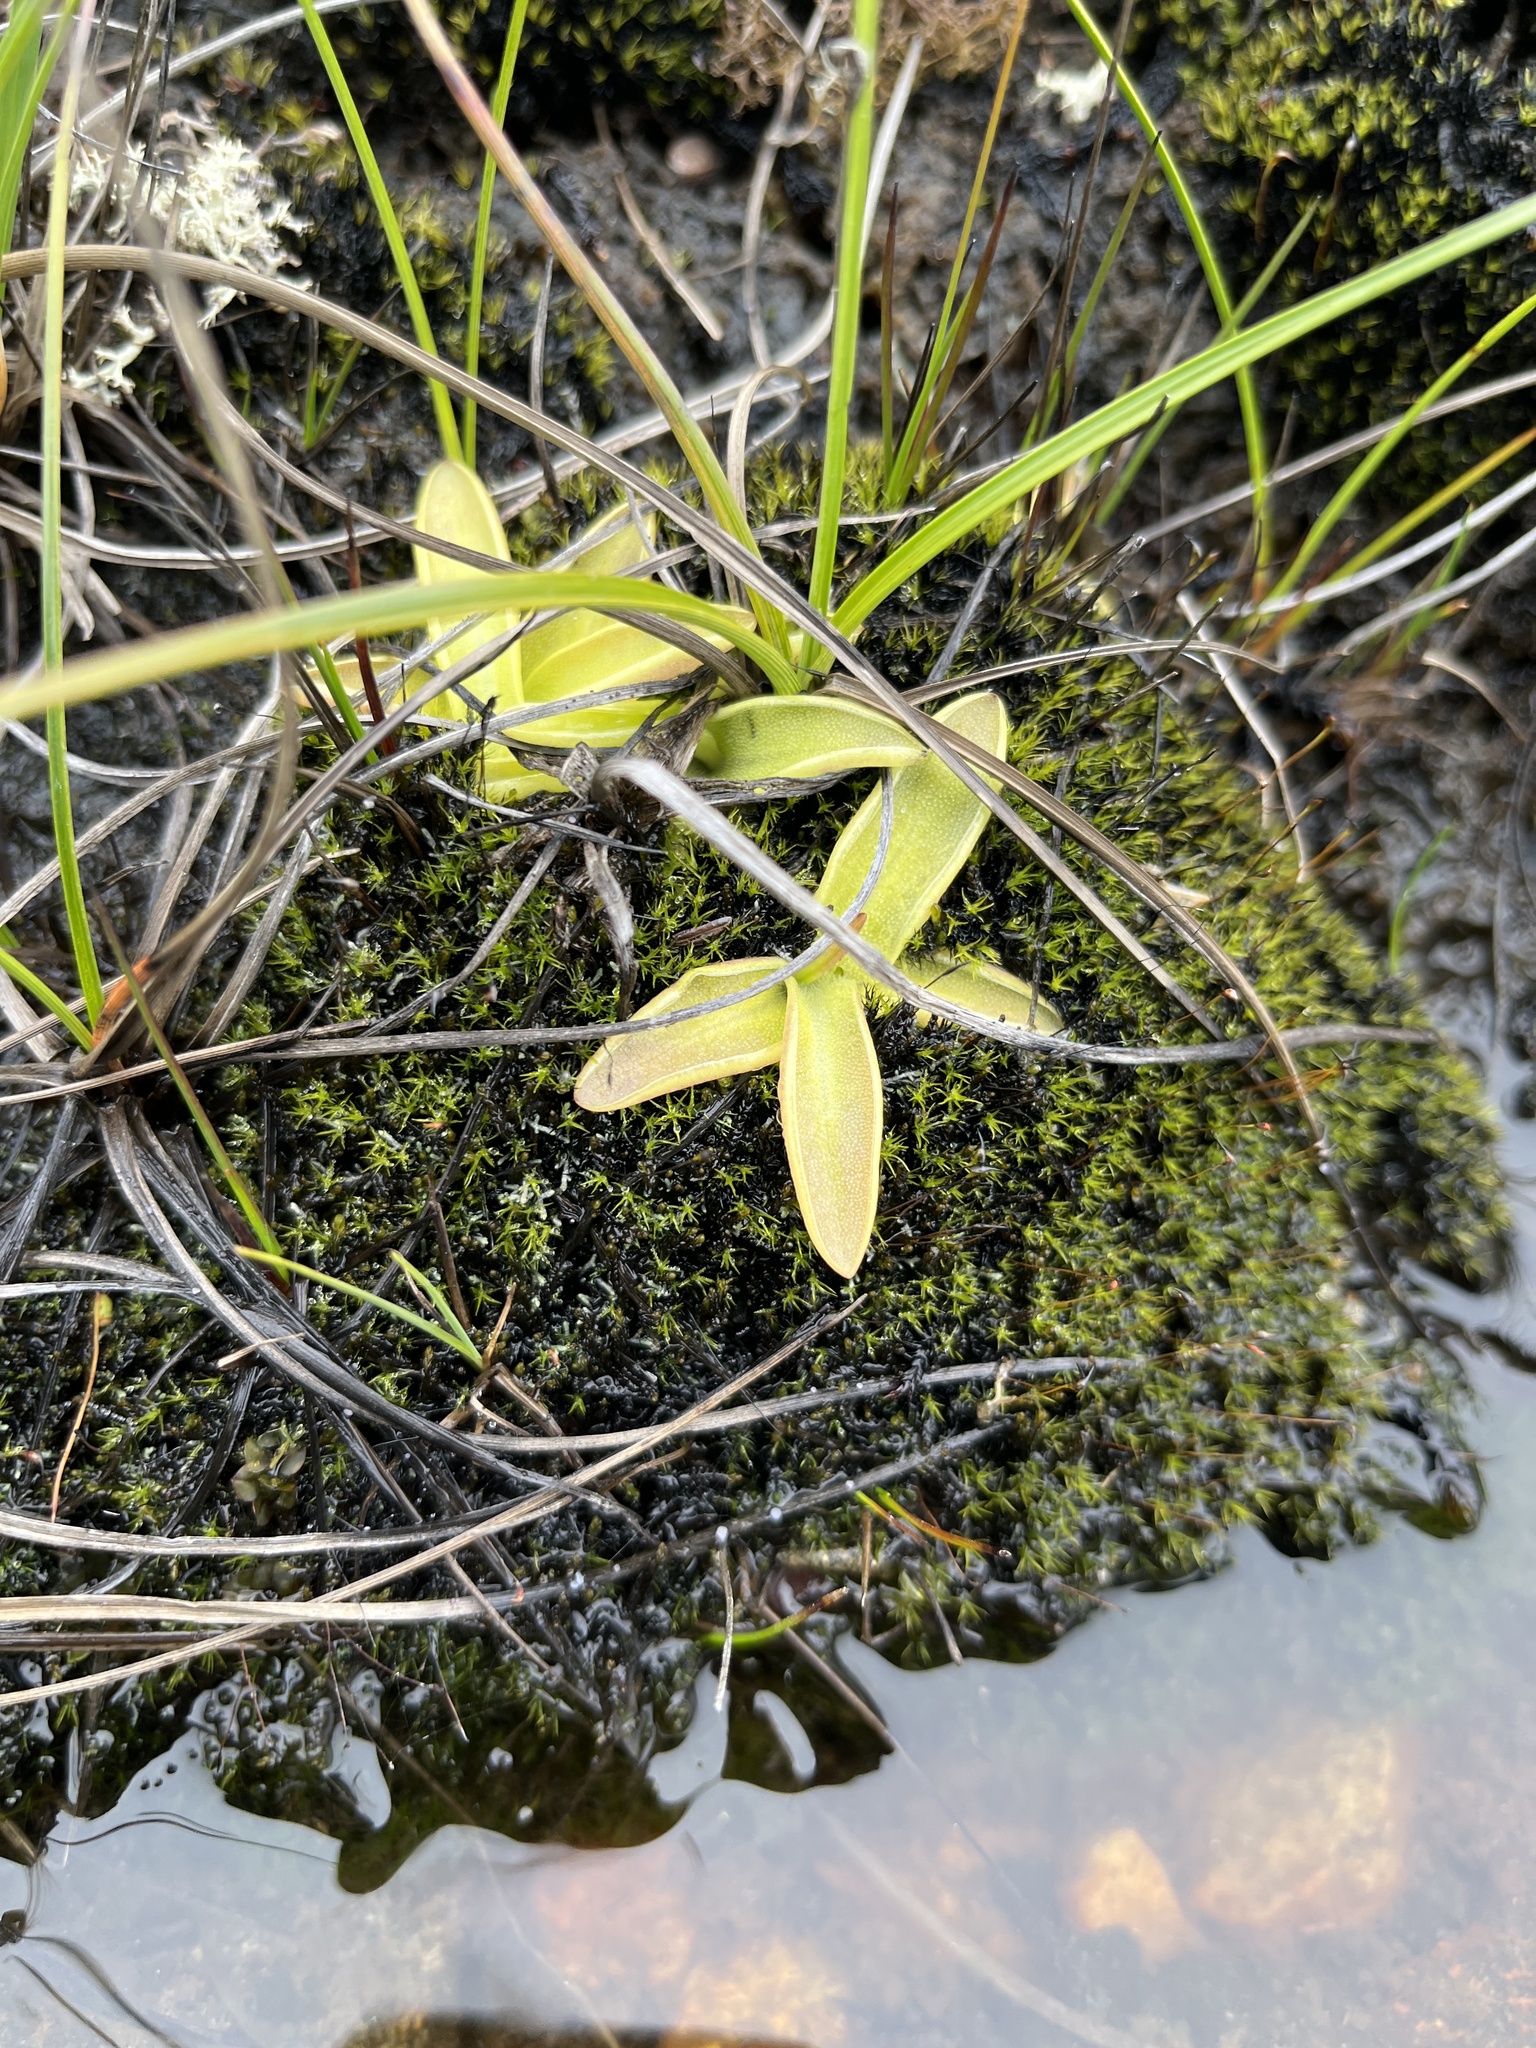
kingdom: Plantae
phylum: Tracheophyta
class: Magnoliopsida
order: Lamiales
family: Lentibulariaceae
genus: Pinguicula
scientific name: Pinguicula vulgaris
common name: Common butterwort
